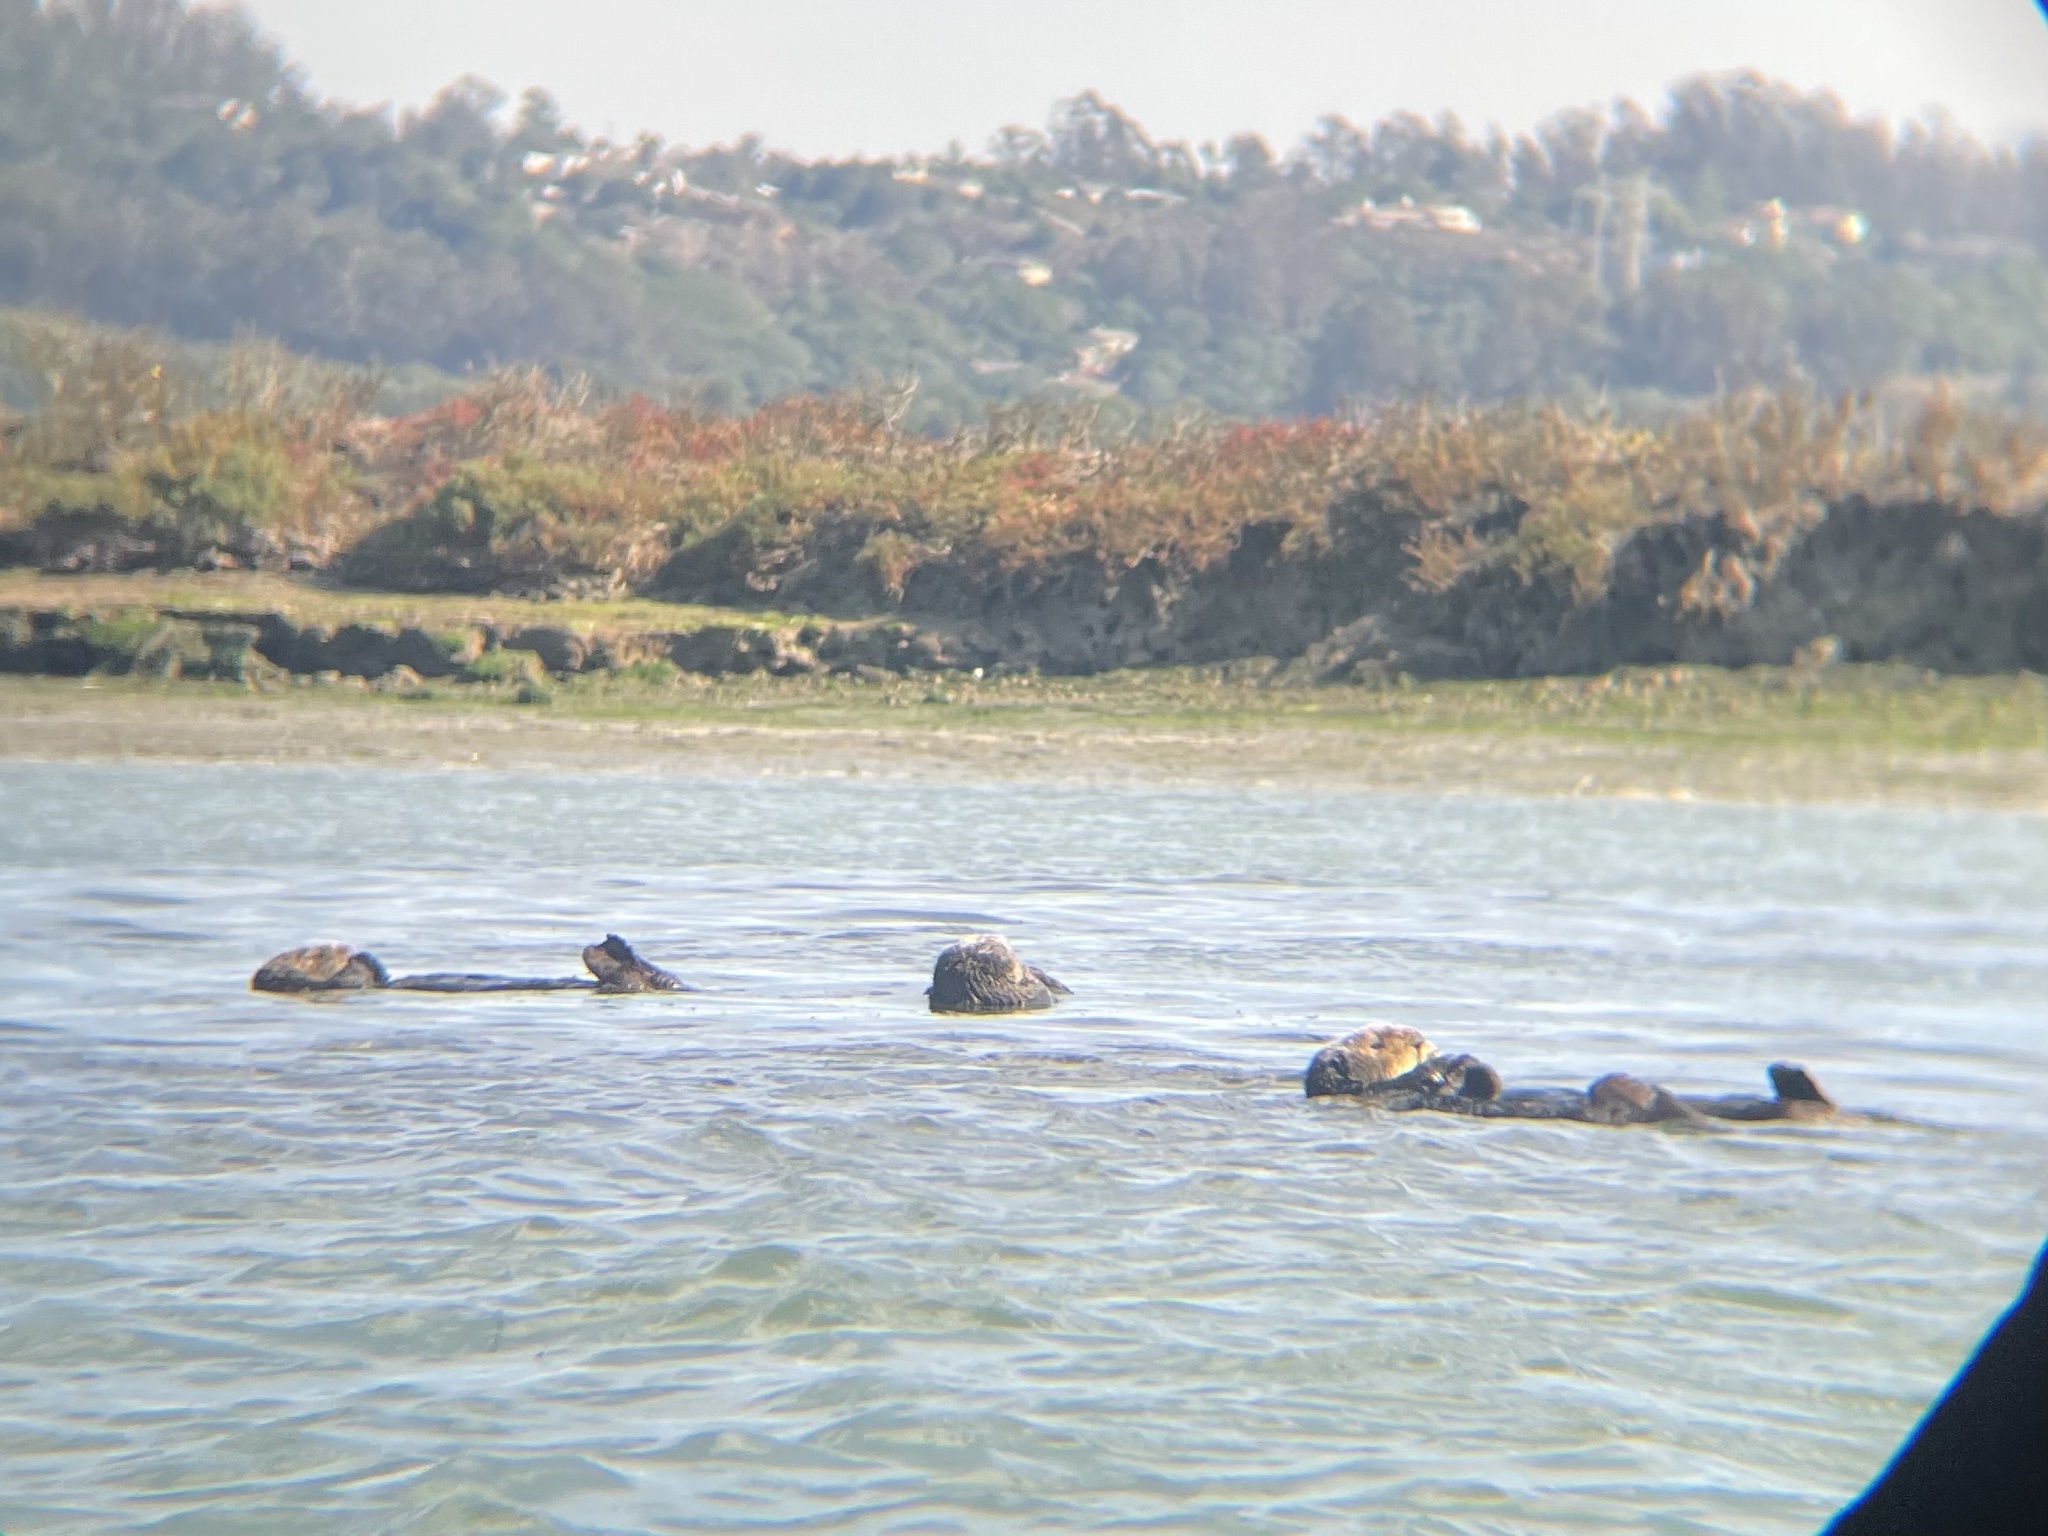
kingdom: Animalia
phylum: Chordata
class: Mammalia
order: Carnivora
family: Mustelidae
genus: Enhydra
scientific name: Enhydra lutris
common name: Sea otter
